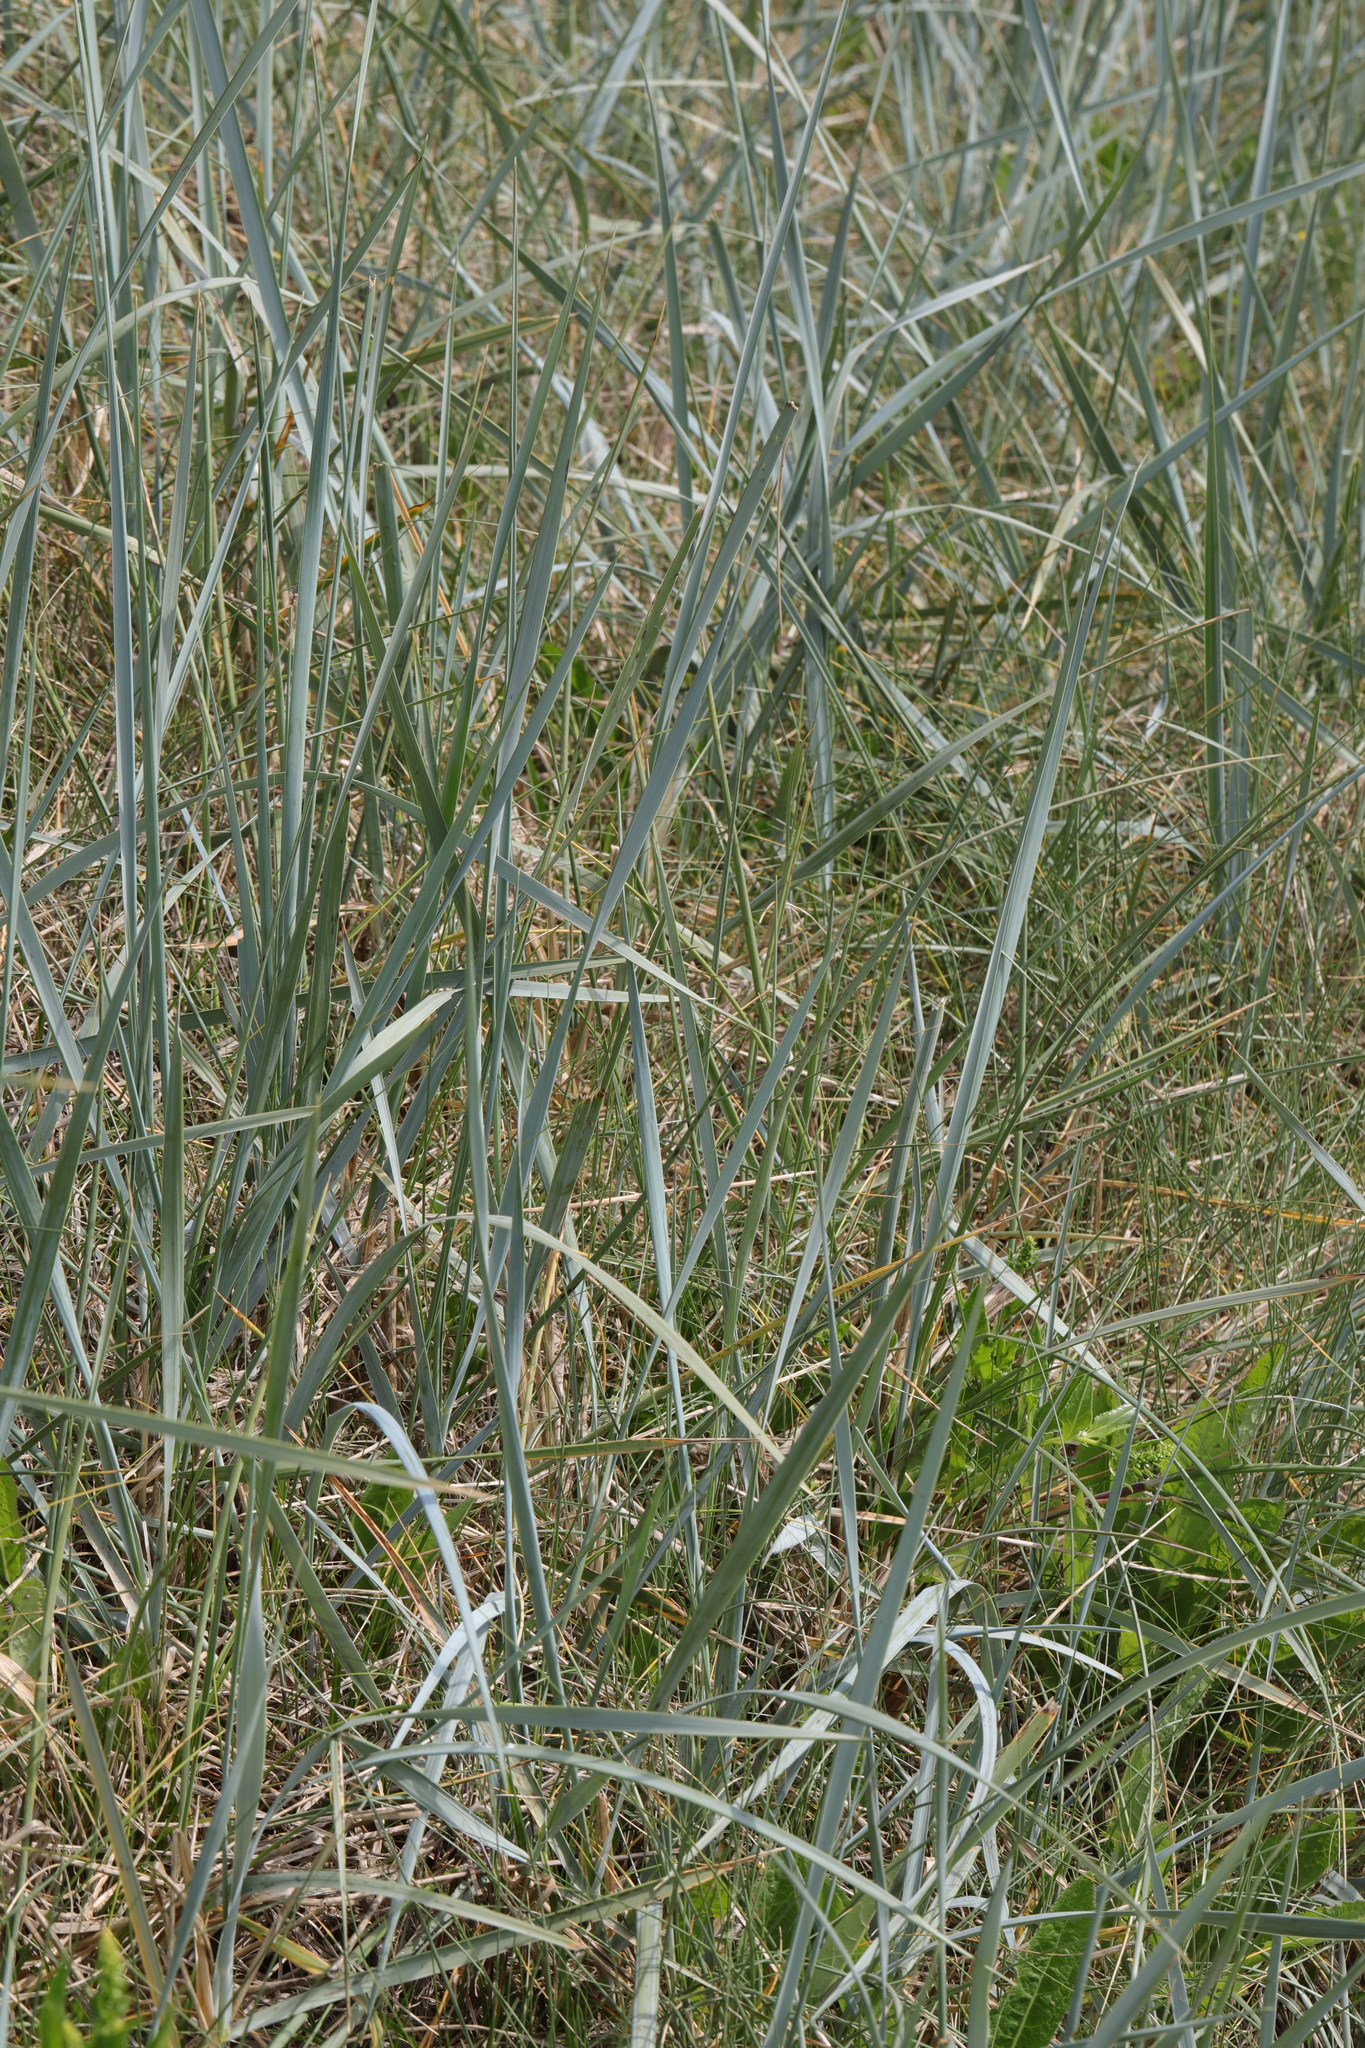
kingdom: Plantae
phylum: Tracheophyta
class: Liliopsida
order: Poales
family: Poaceae
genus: Leymus
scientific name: Leymus arenarius
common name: Lyme-grass
